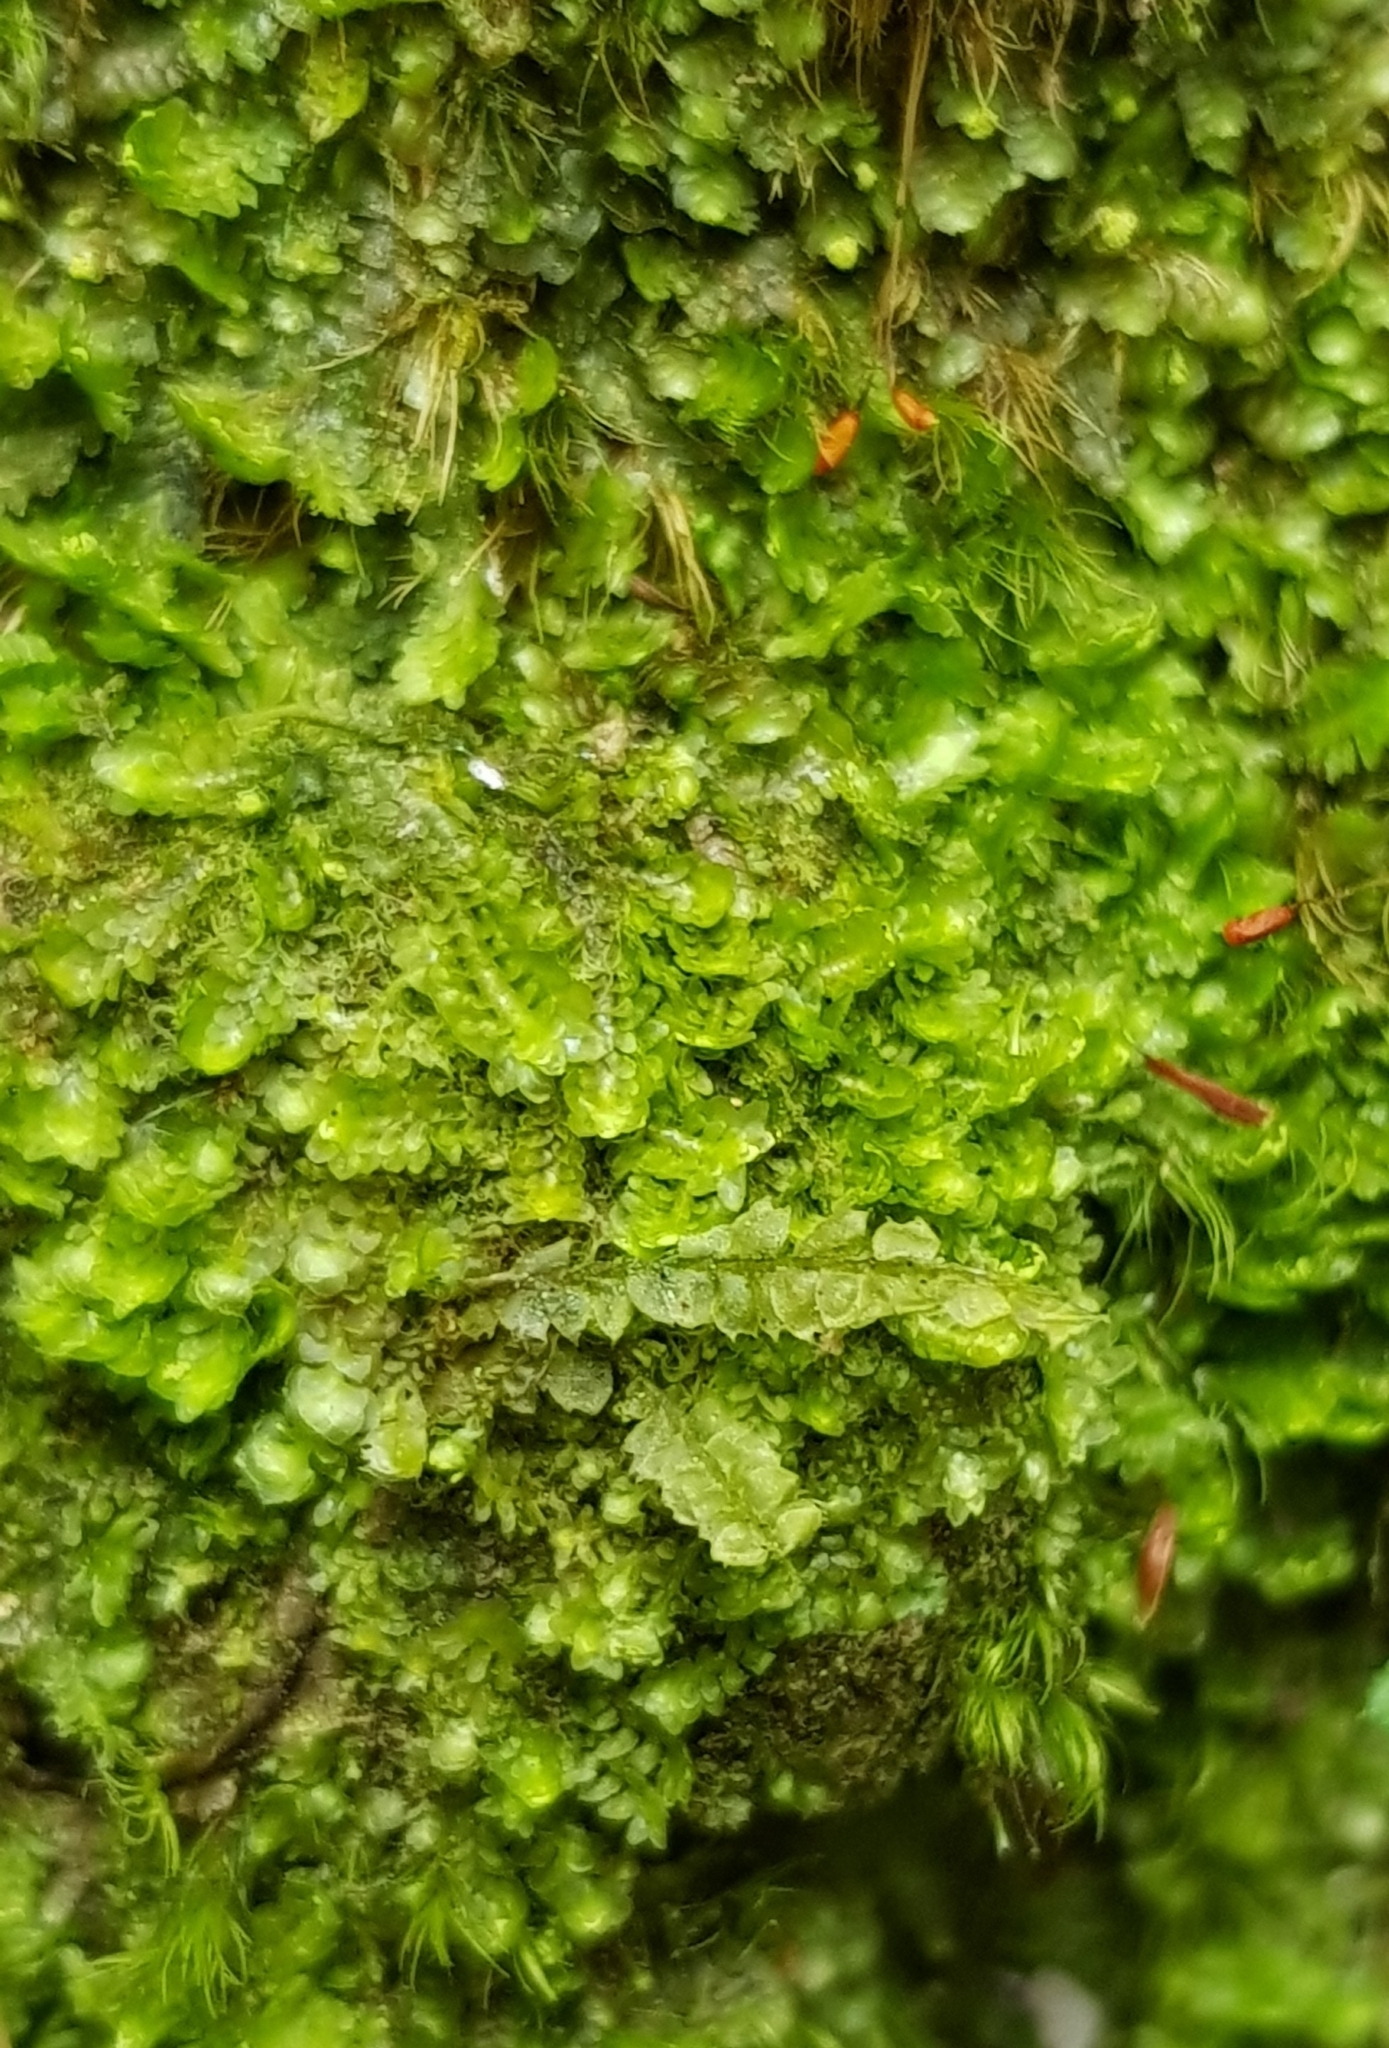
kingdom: Plantae
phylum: Marchantiophyta
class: Jungermanniopsida
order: Jungermanniales
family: Scapaniaceae
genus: Diplophyllum
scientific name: Diplophyllum albicans
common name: White earwort
